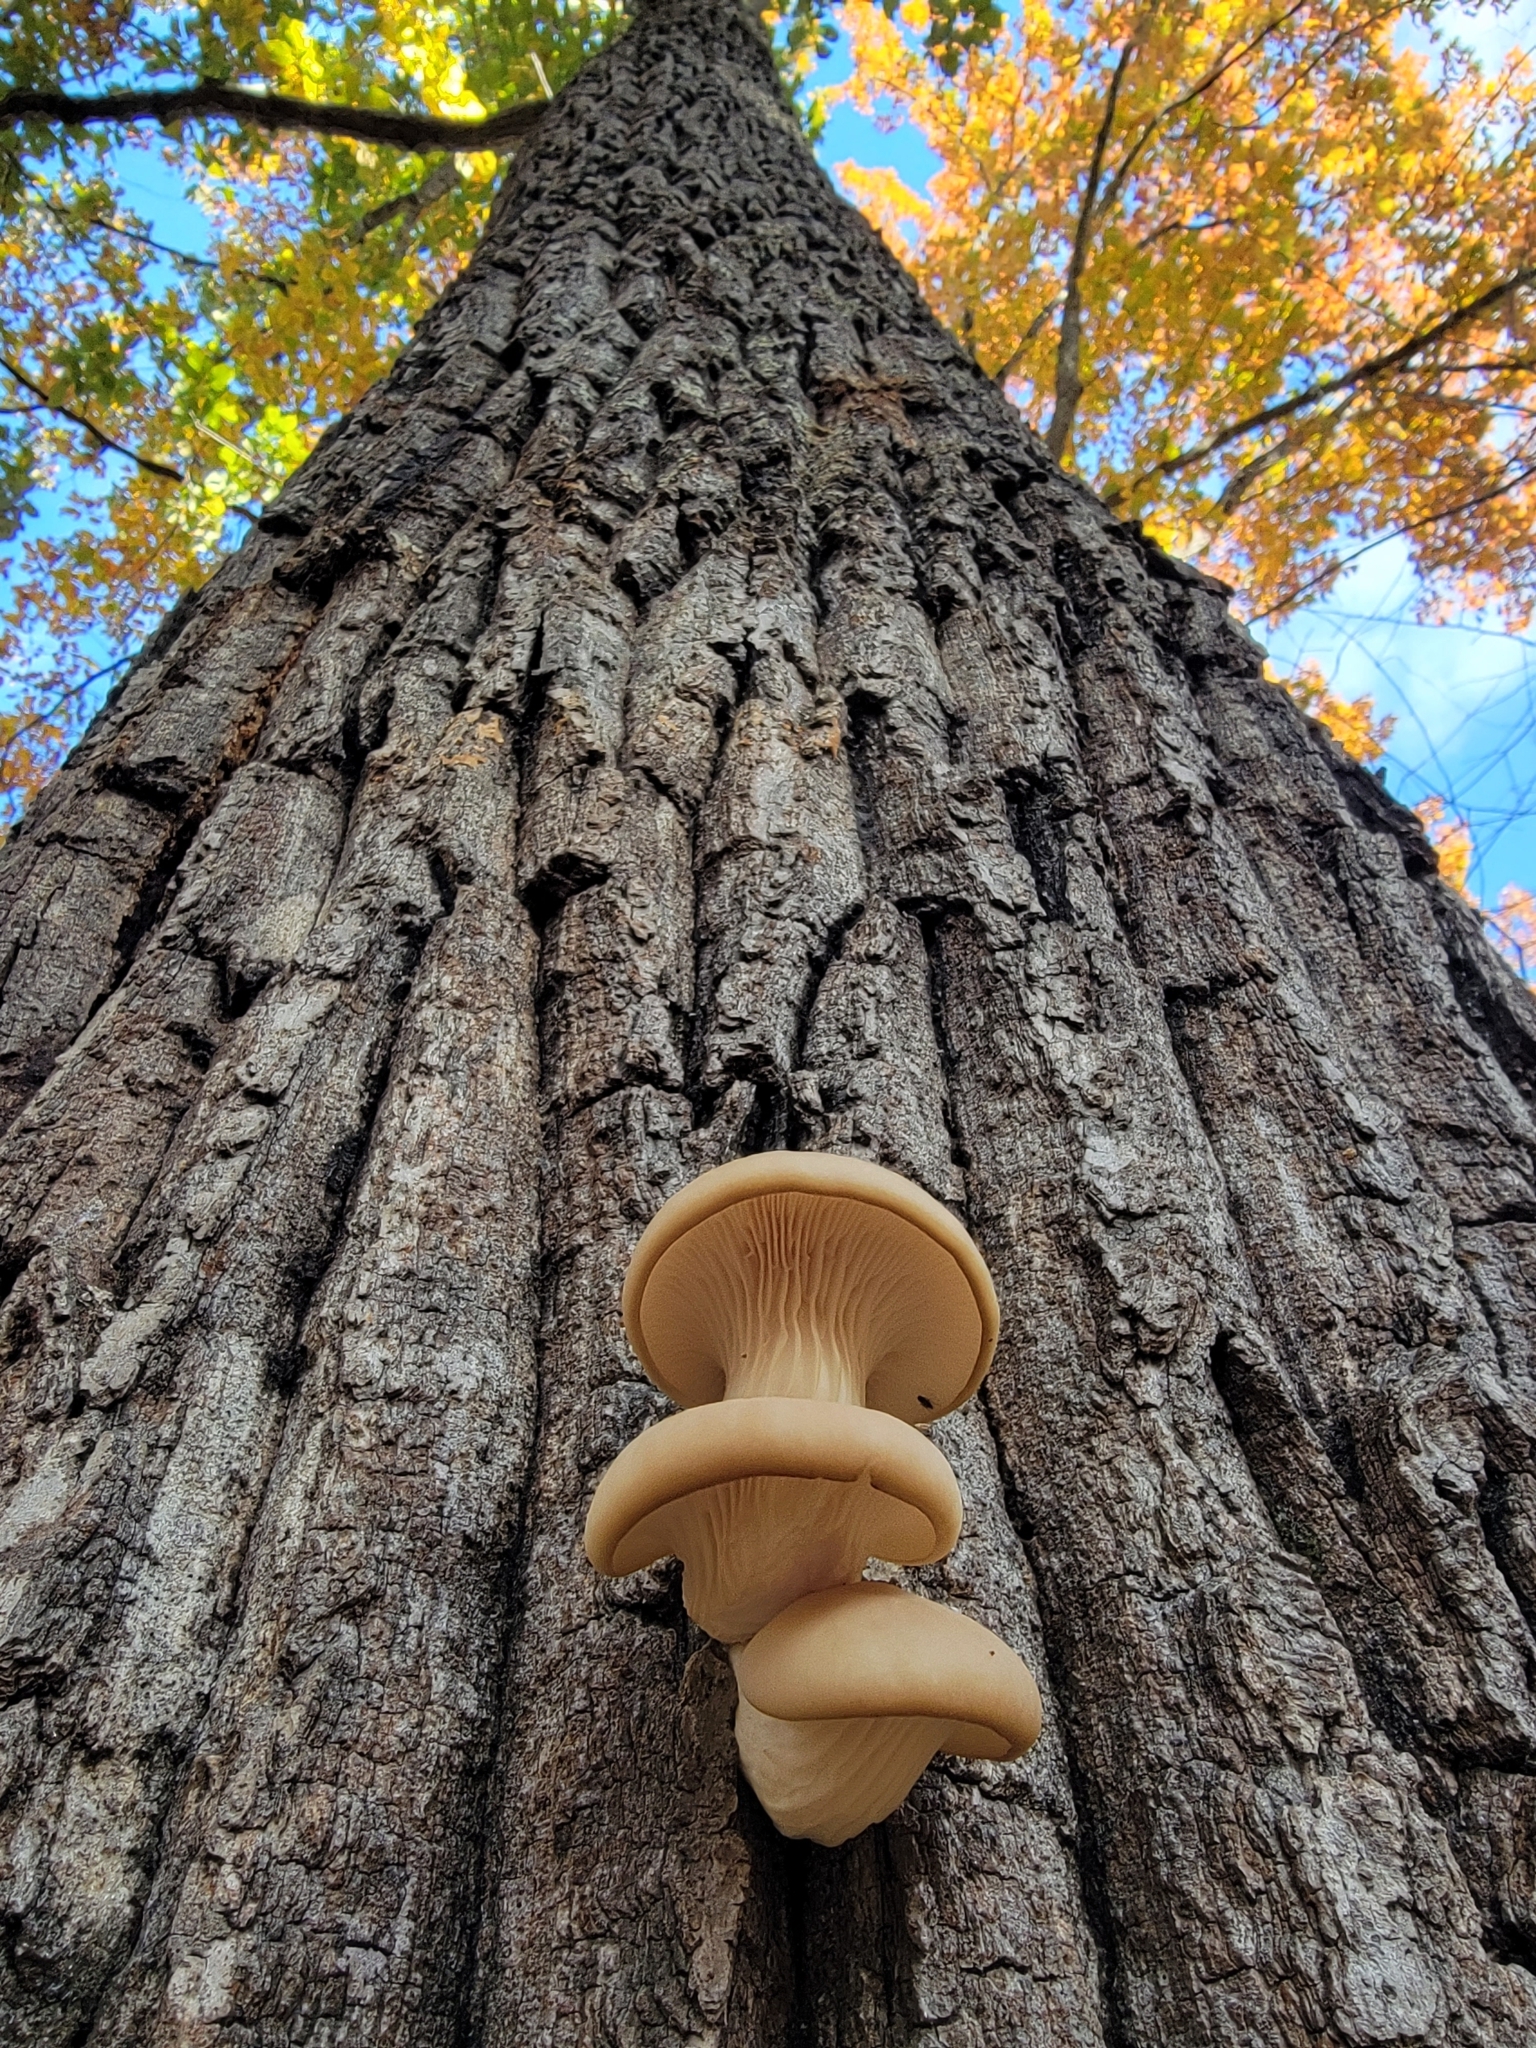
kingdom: Fungi
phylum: Basidiomycota
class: Agaricomycetes
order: Agaricales
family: Pleurotaceae
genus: Pleurotus
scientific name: Pleurotus ostreatus
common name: Oyster mushroom
